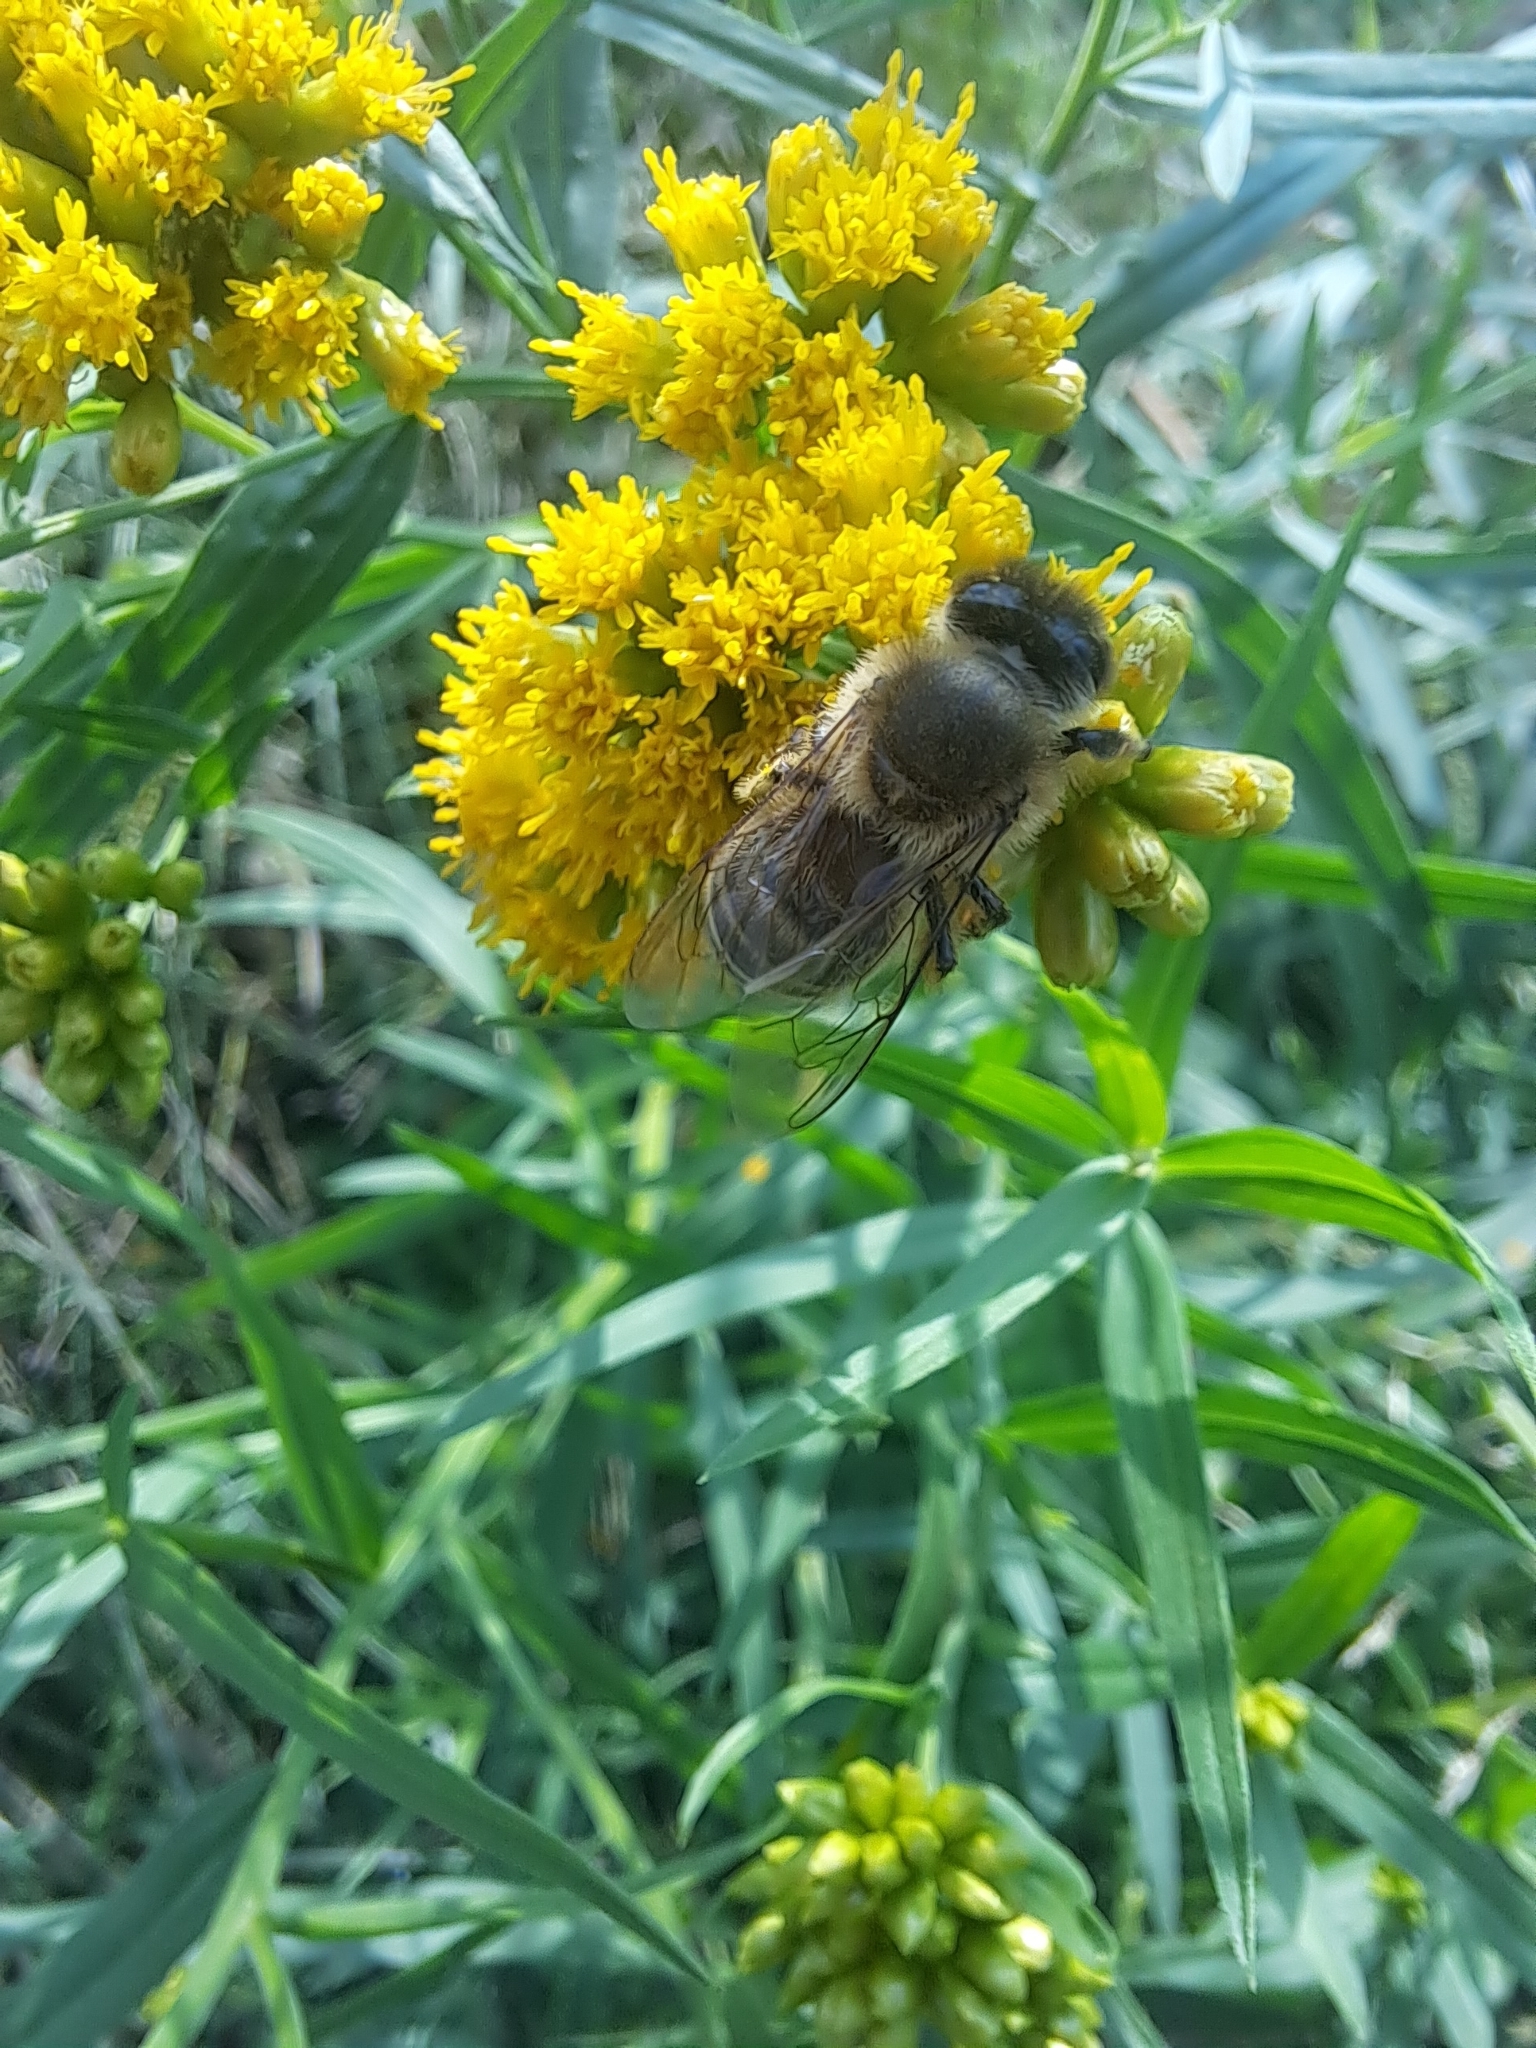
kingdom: Animalia
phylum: Arthropoda
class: Insecta
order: Hymenoptera
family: Apidae
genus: Apis
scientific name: Apis mellifera
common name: Honey bee
